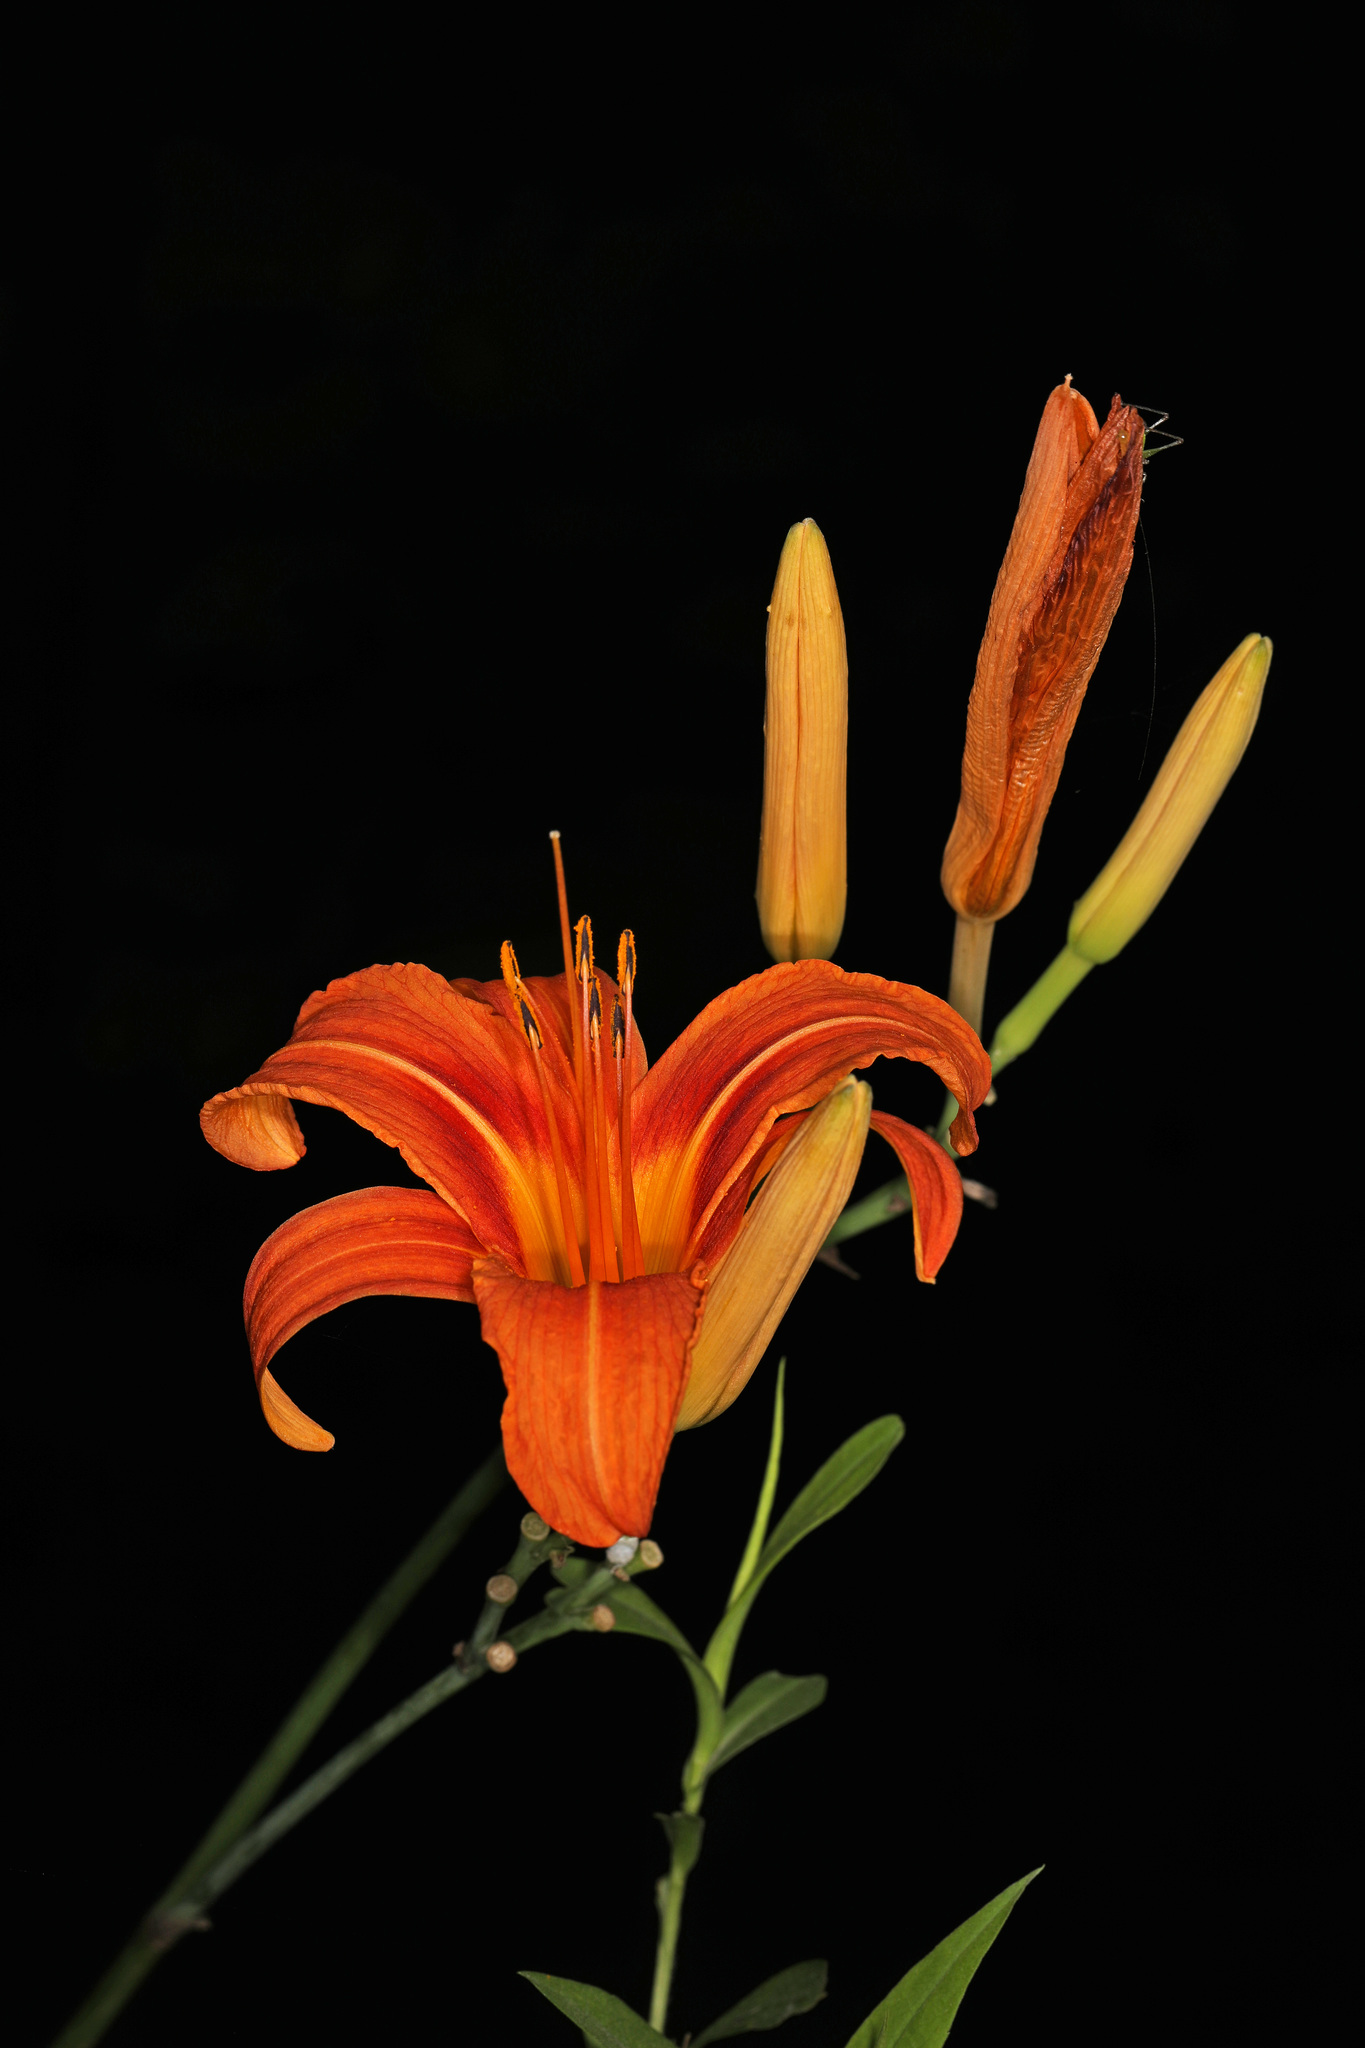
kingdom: Plantae
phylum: Tracheophyta
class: Liliopsida
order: Asparagales
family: Asphodelaceae
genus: Hemerocallis
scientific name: Hemerocallis fulva
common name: Orange day-lily
